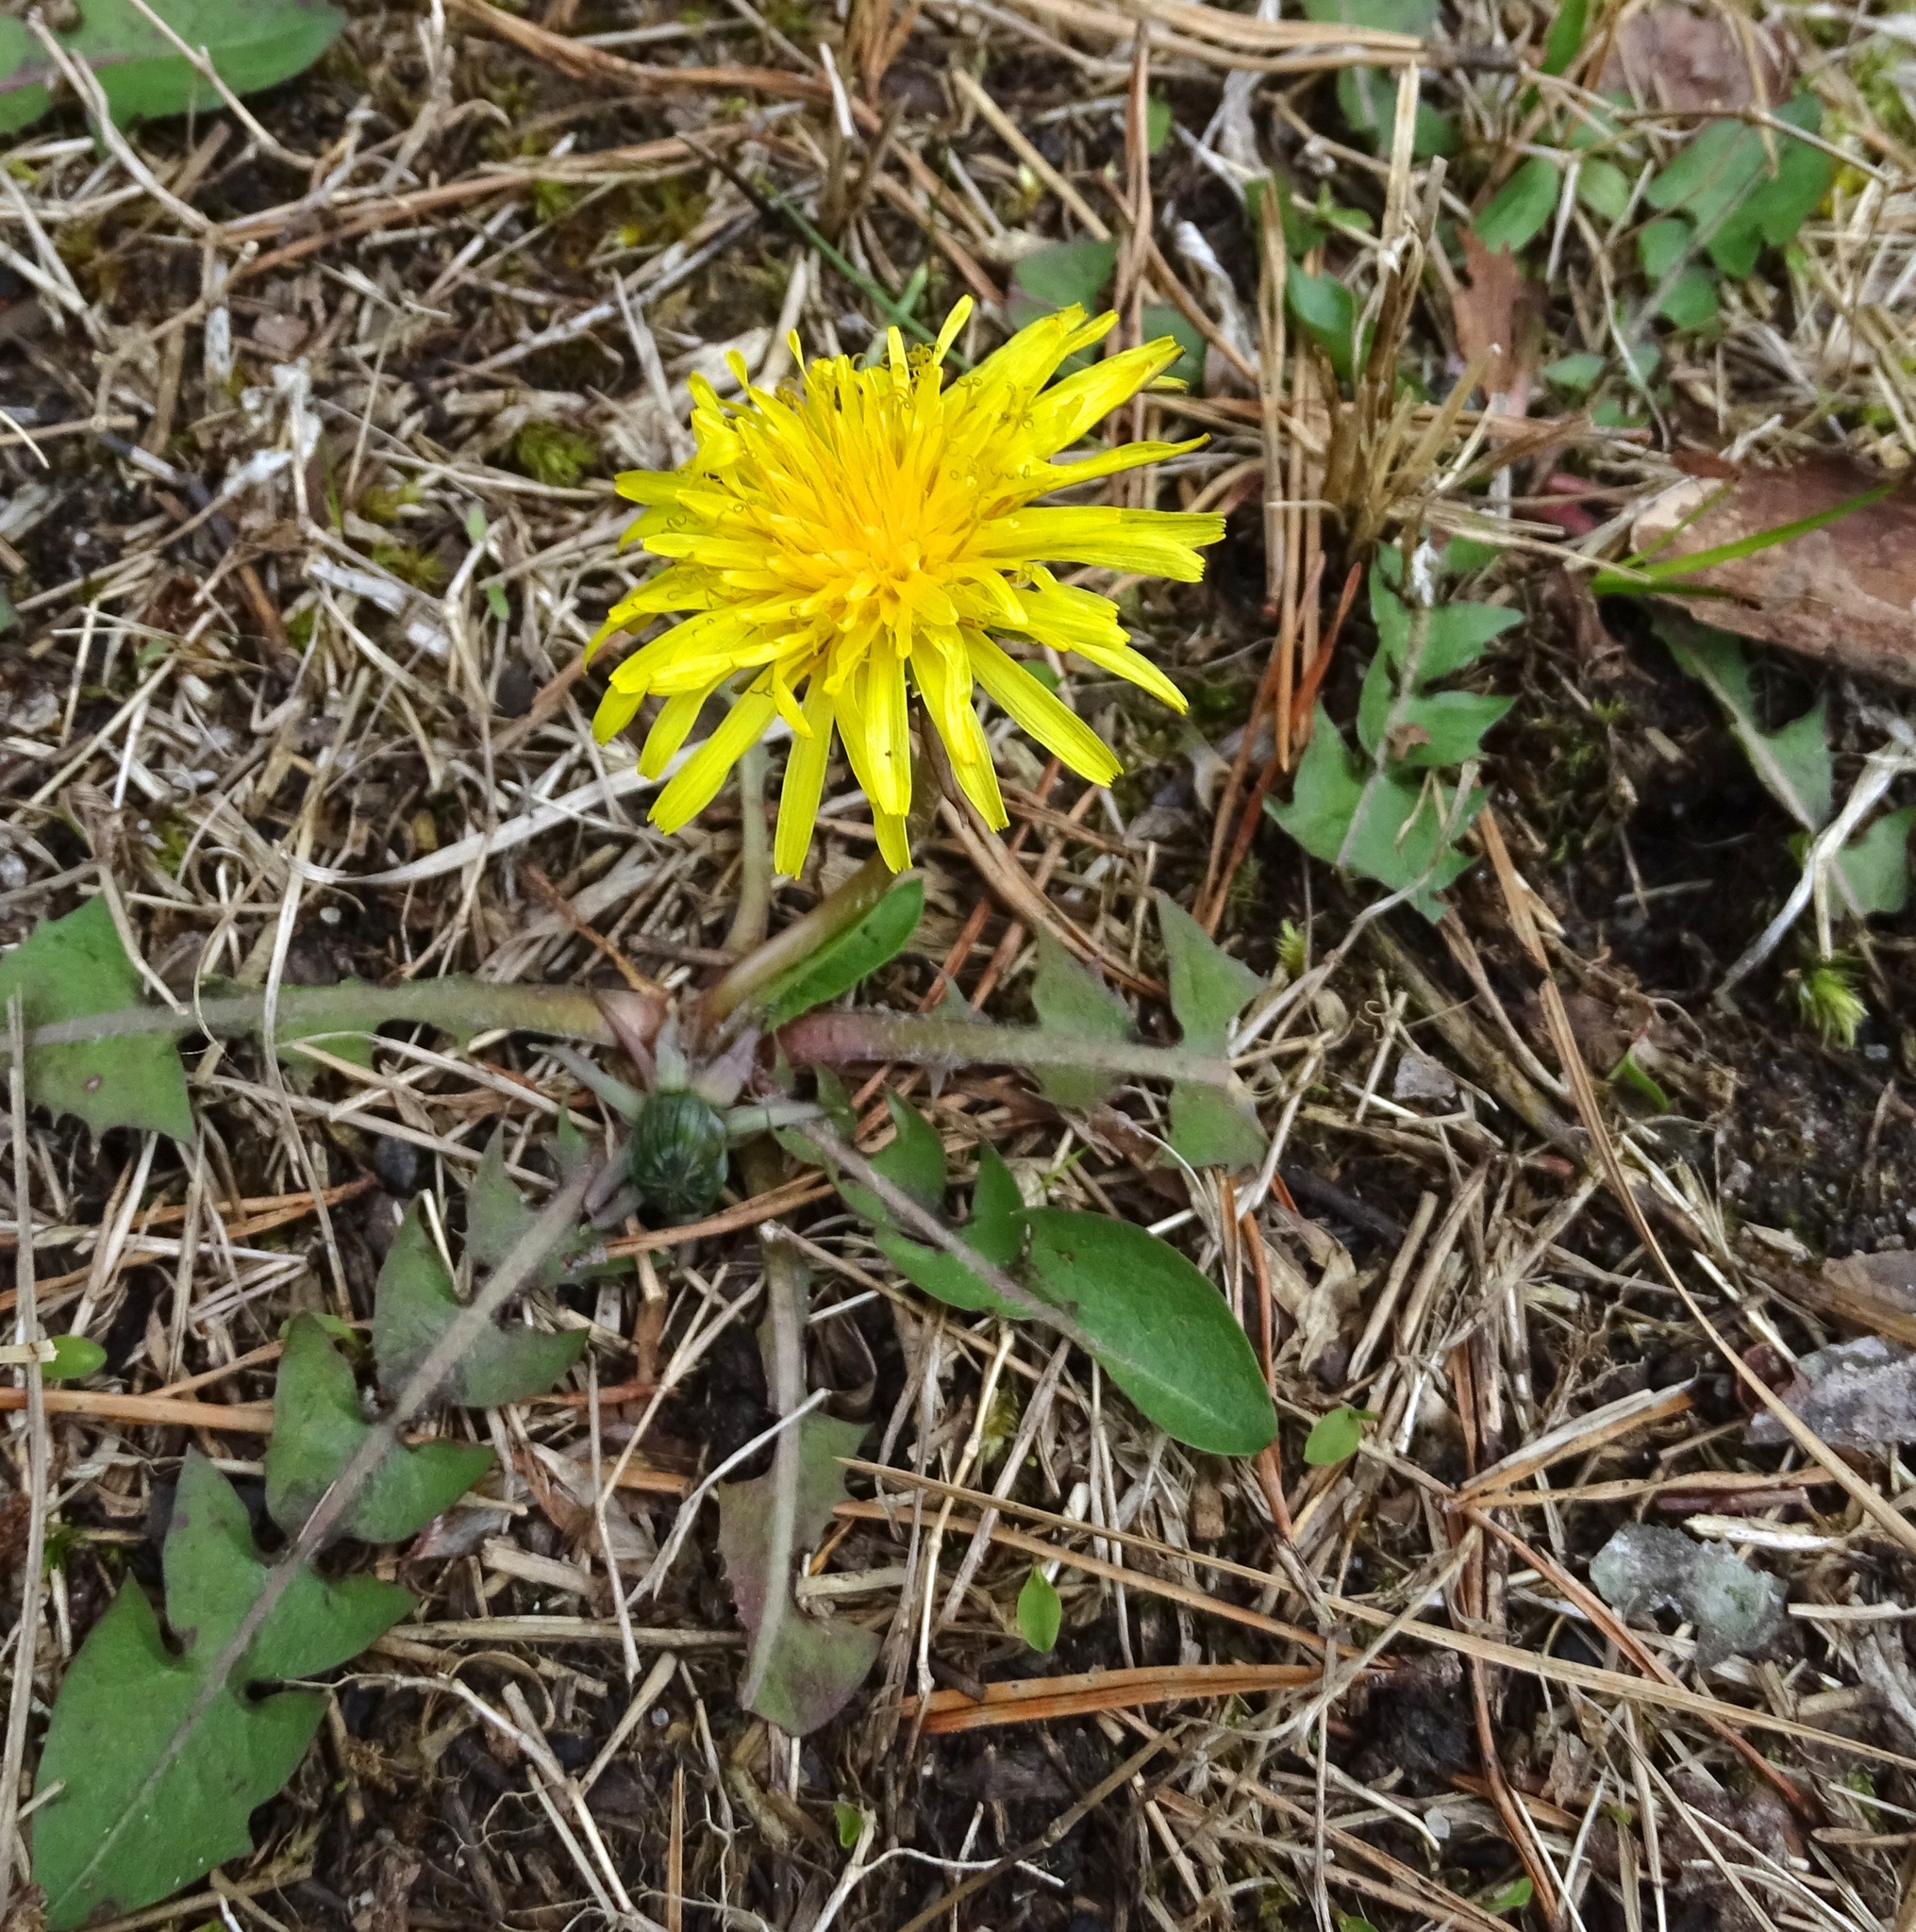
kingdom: Plantae
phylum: Tracheophyta
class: Magnoliopsida
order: Asterales
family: Asteraceae
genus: Taraxacum
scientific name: Taraxacum officinale
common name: Common dandelion
